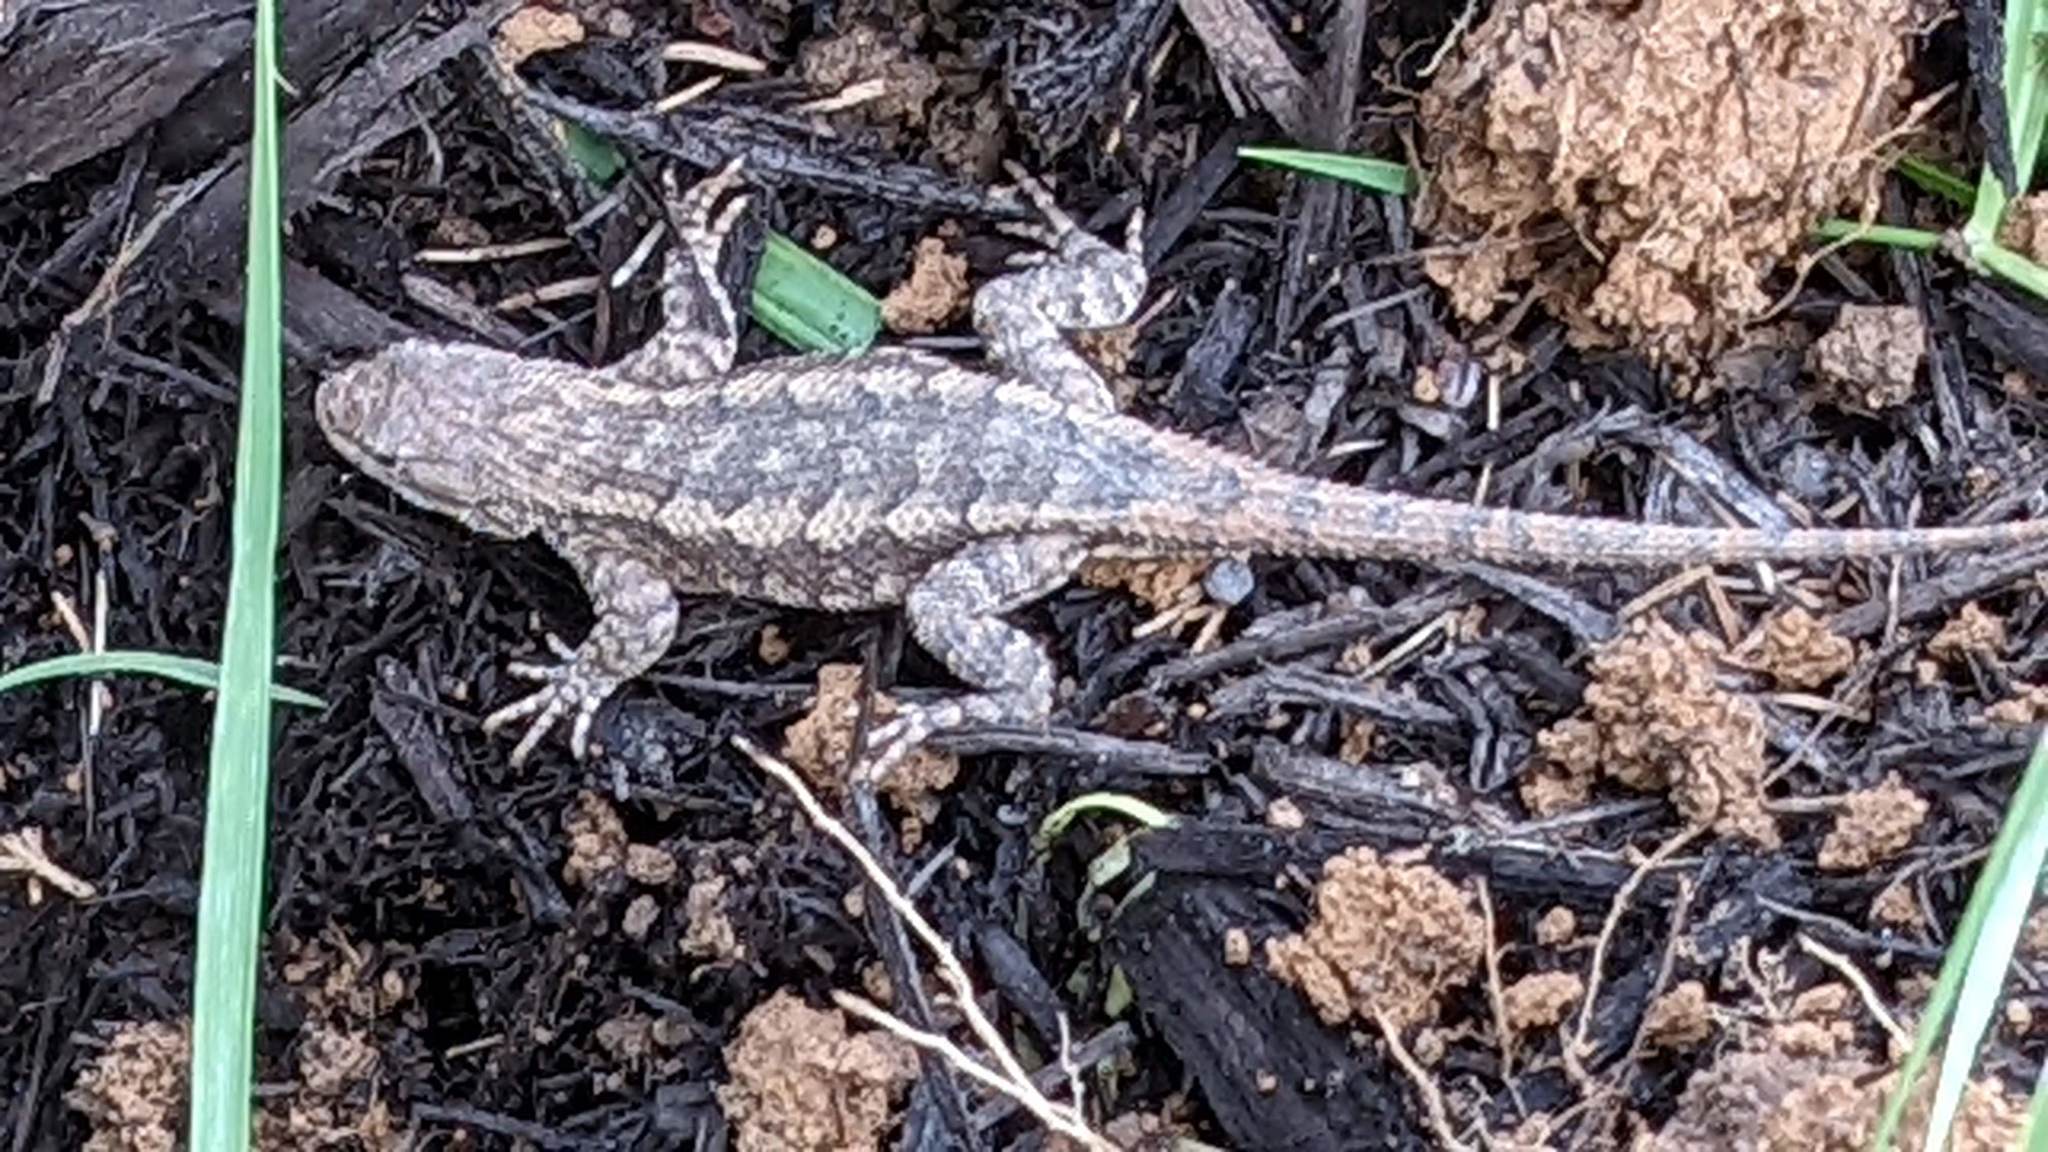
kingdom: Animalia
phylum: Chordata
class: Squamata
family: Phrynosomatidae
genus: Sceloporus
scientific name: Sceloporus consobrinus
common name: Southern prairie lizard
